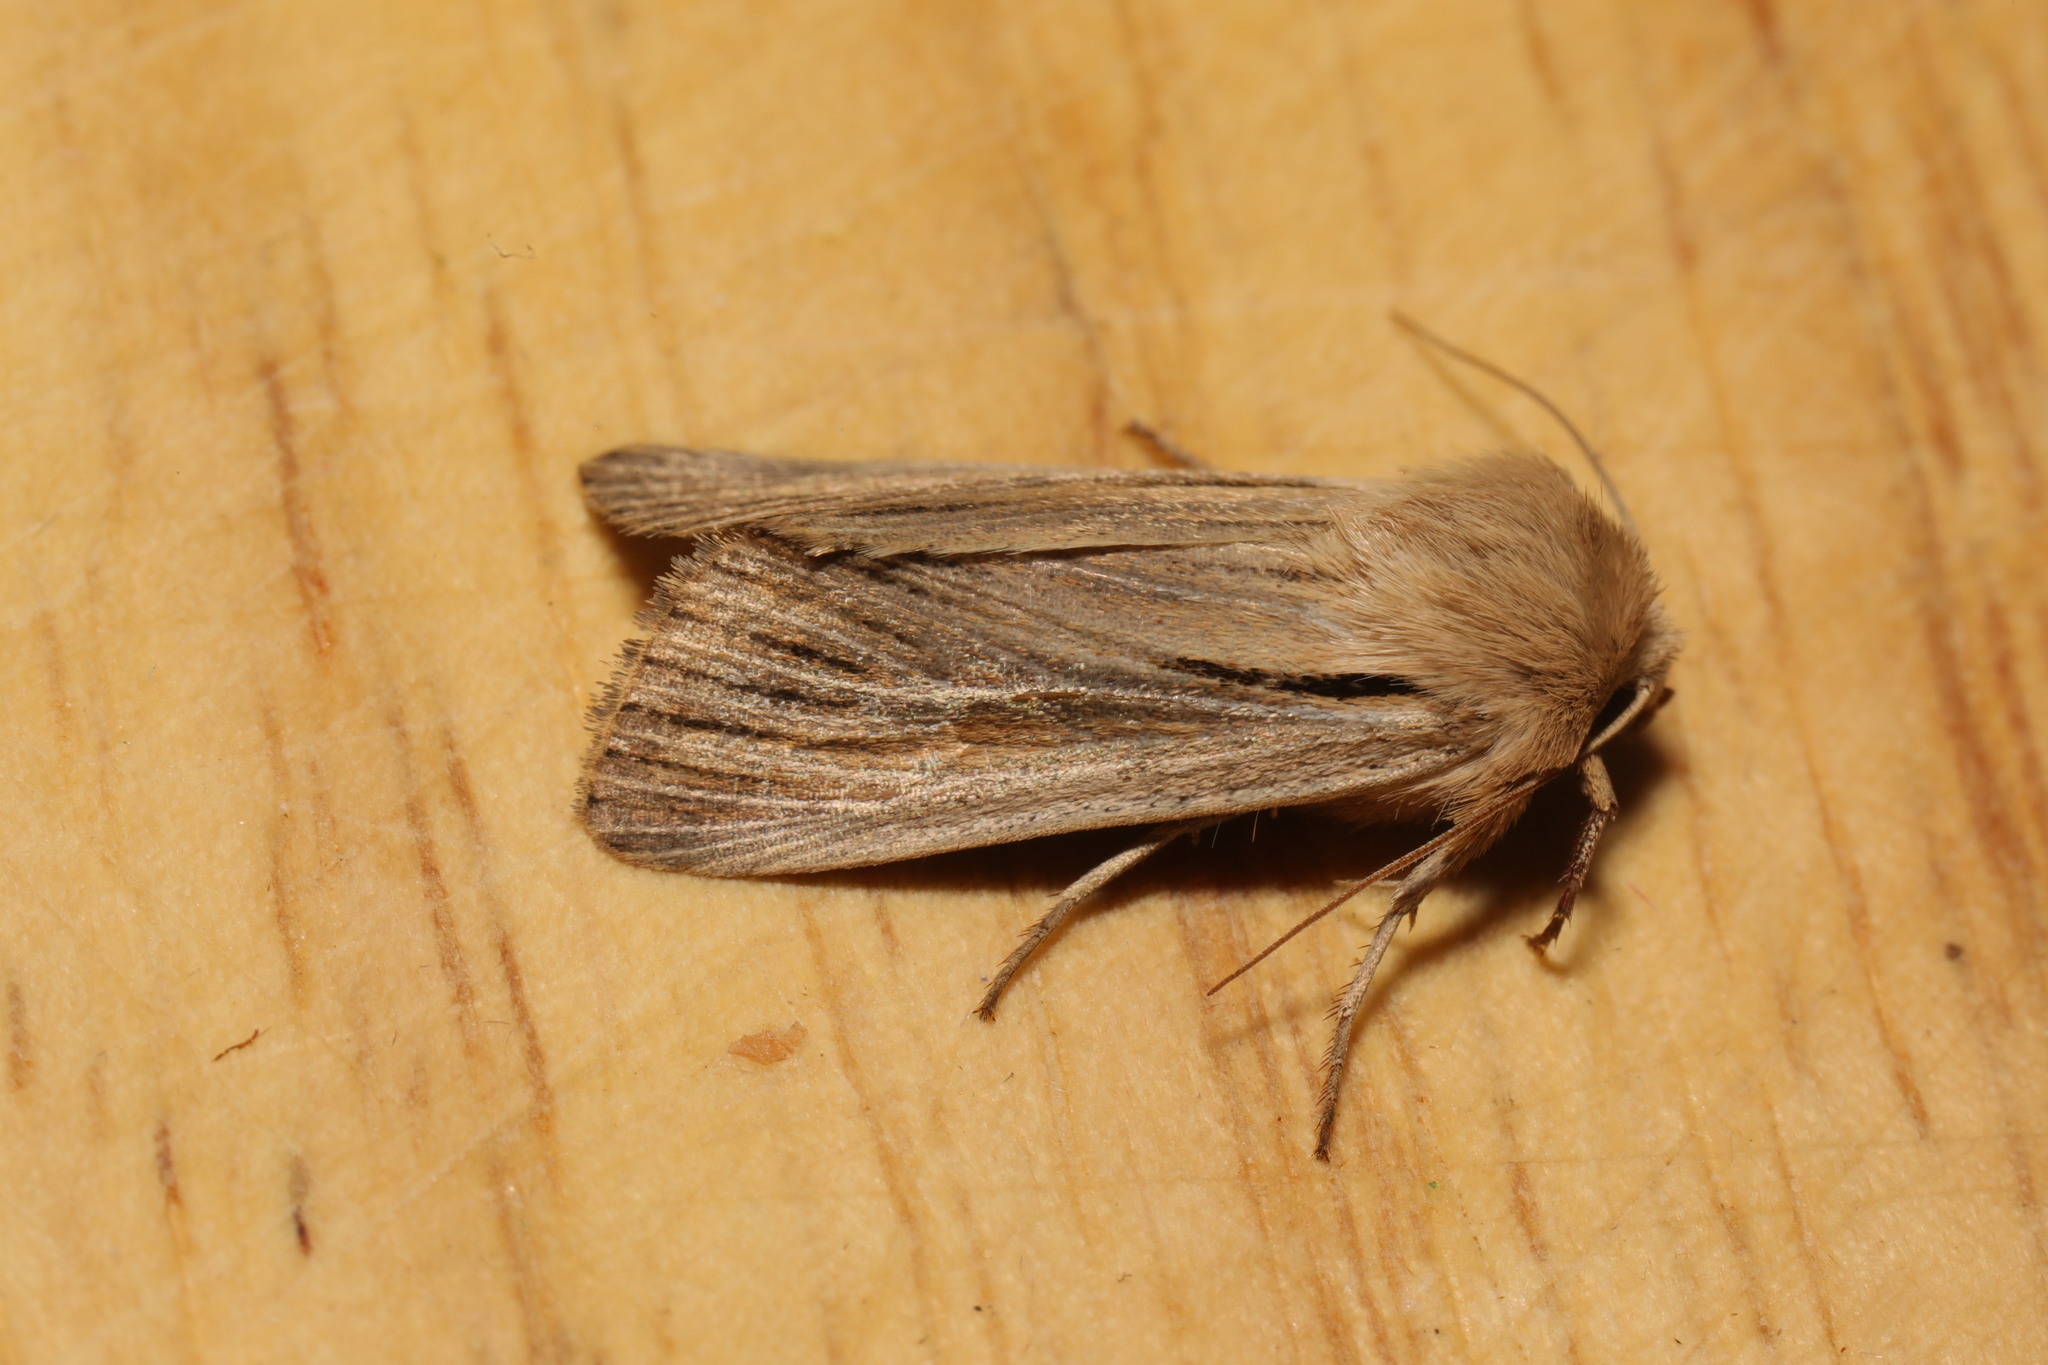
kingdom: Animalia
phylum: Arthropoda
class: Insecta
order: Lepidoptera
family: Noctuidae
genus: Leucania
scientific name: Leucania comma
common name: Shoulder-striped wainscot
